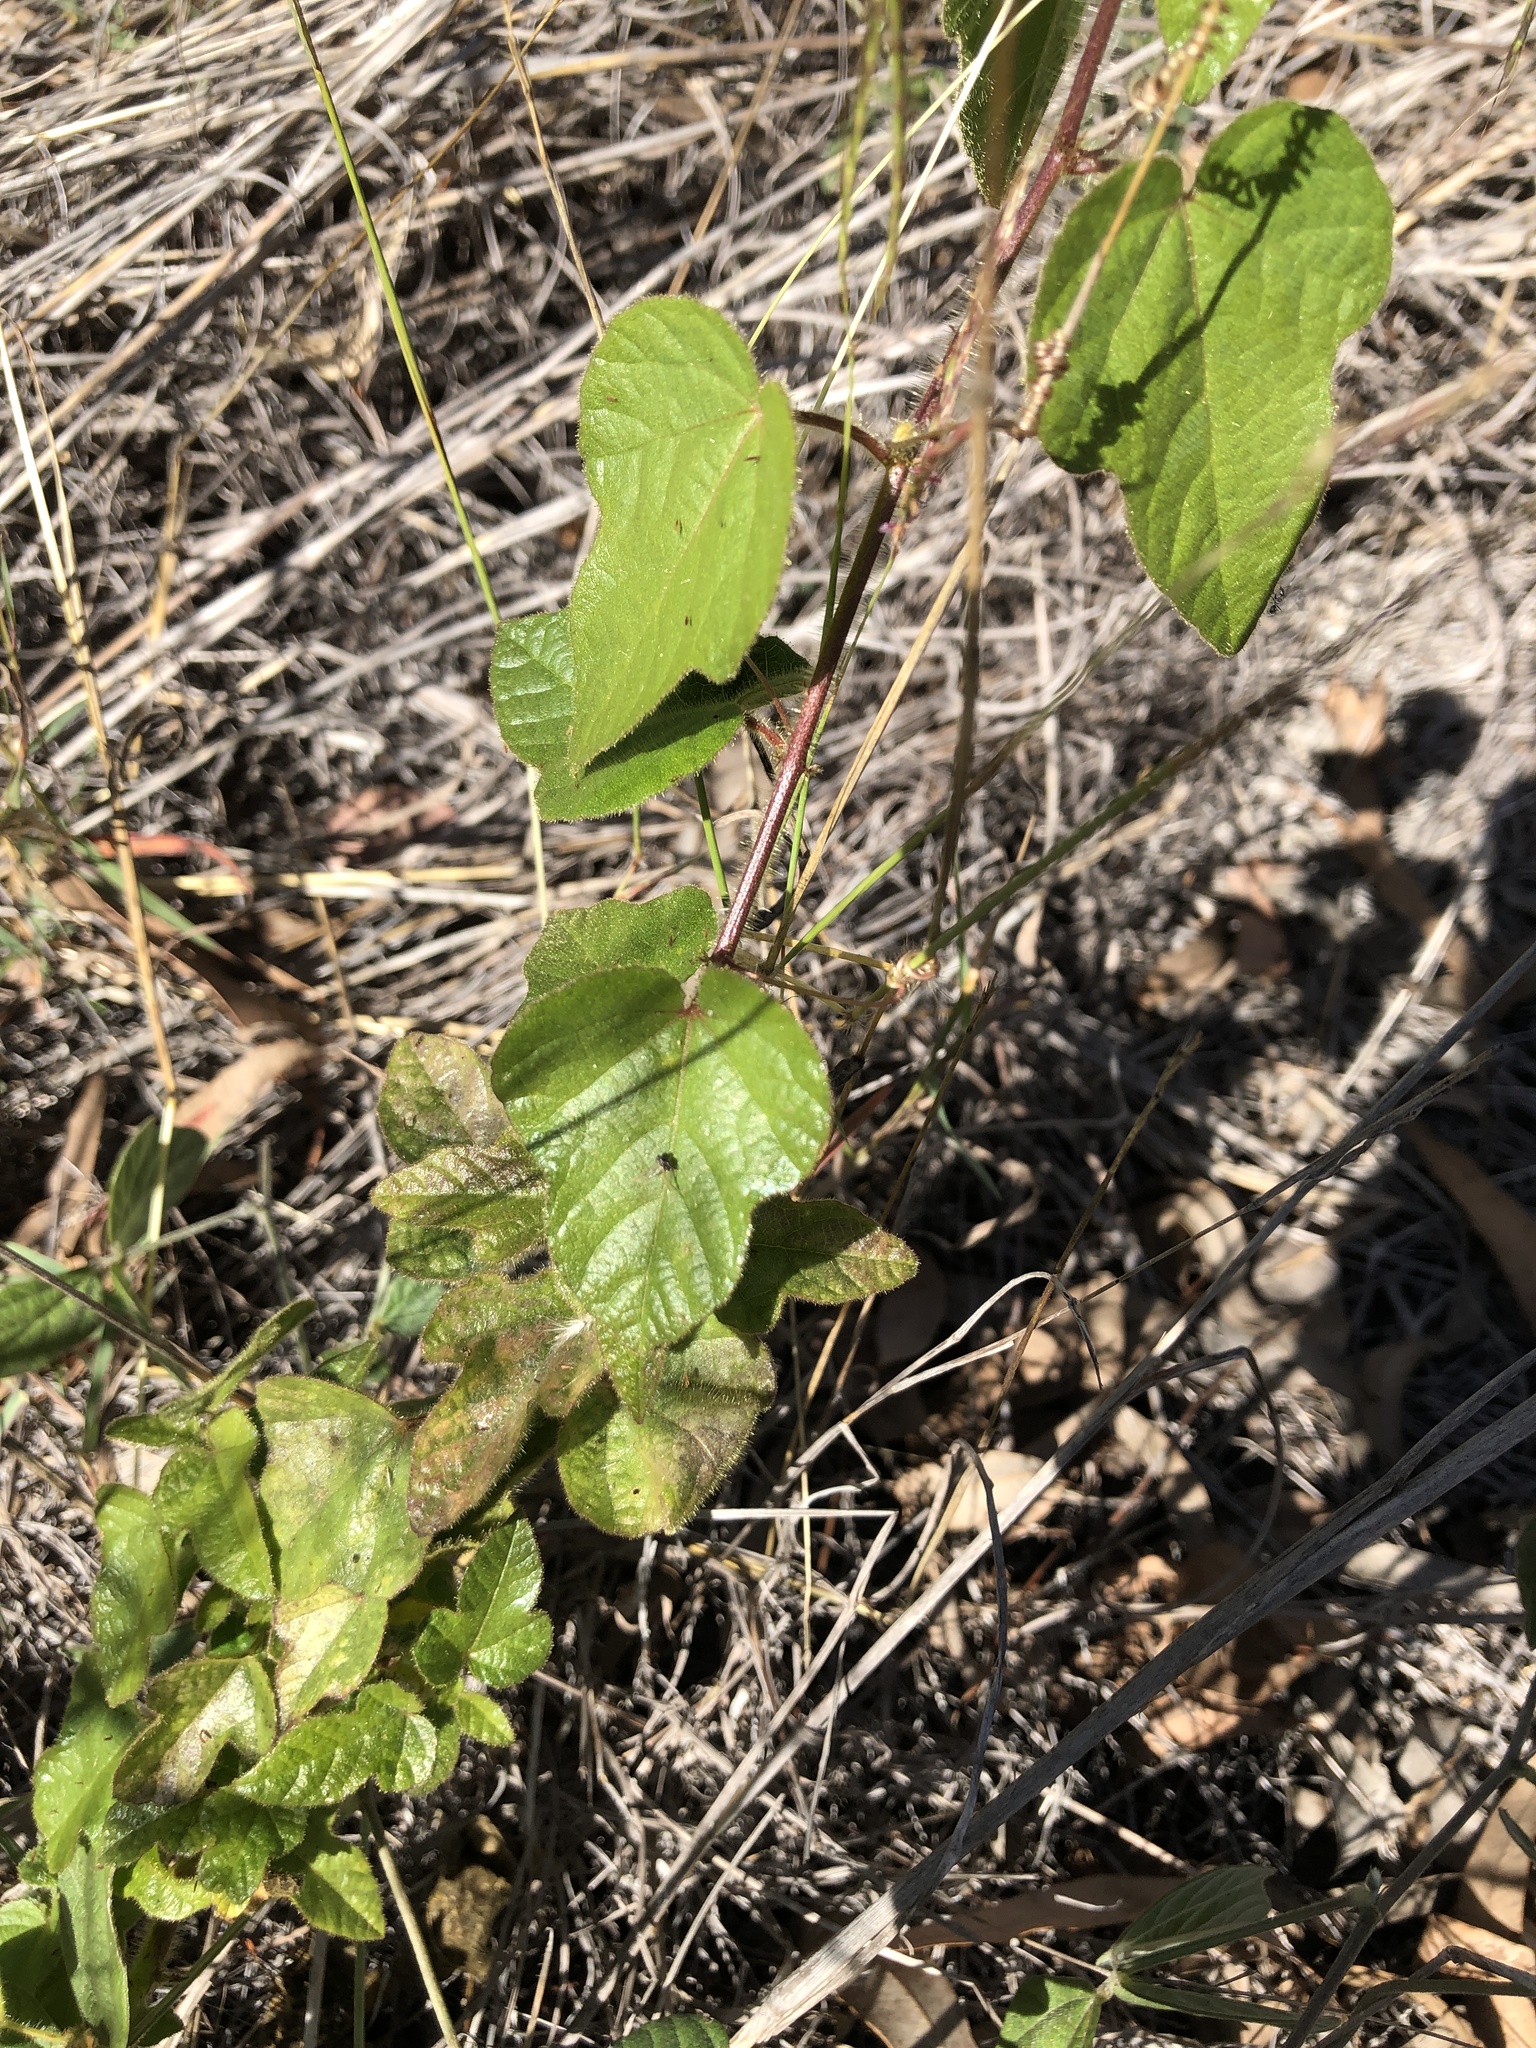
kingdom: Plantae
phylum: Tracheophyta
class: Magnoliopsida
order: Malpighiales
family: Passifloraceae
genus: Passiflora
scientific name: Passiflora foetida
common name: Fetid passionflower
